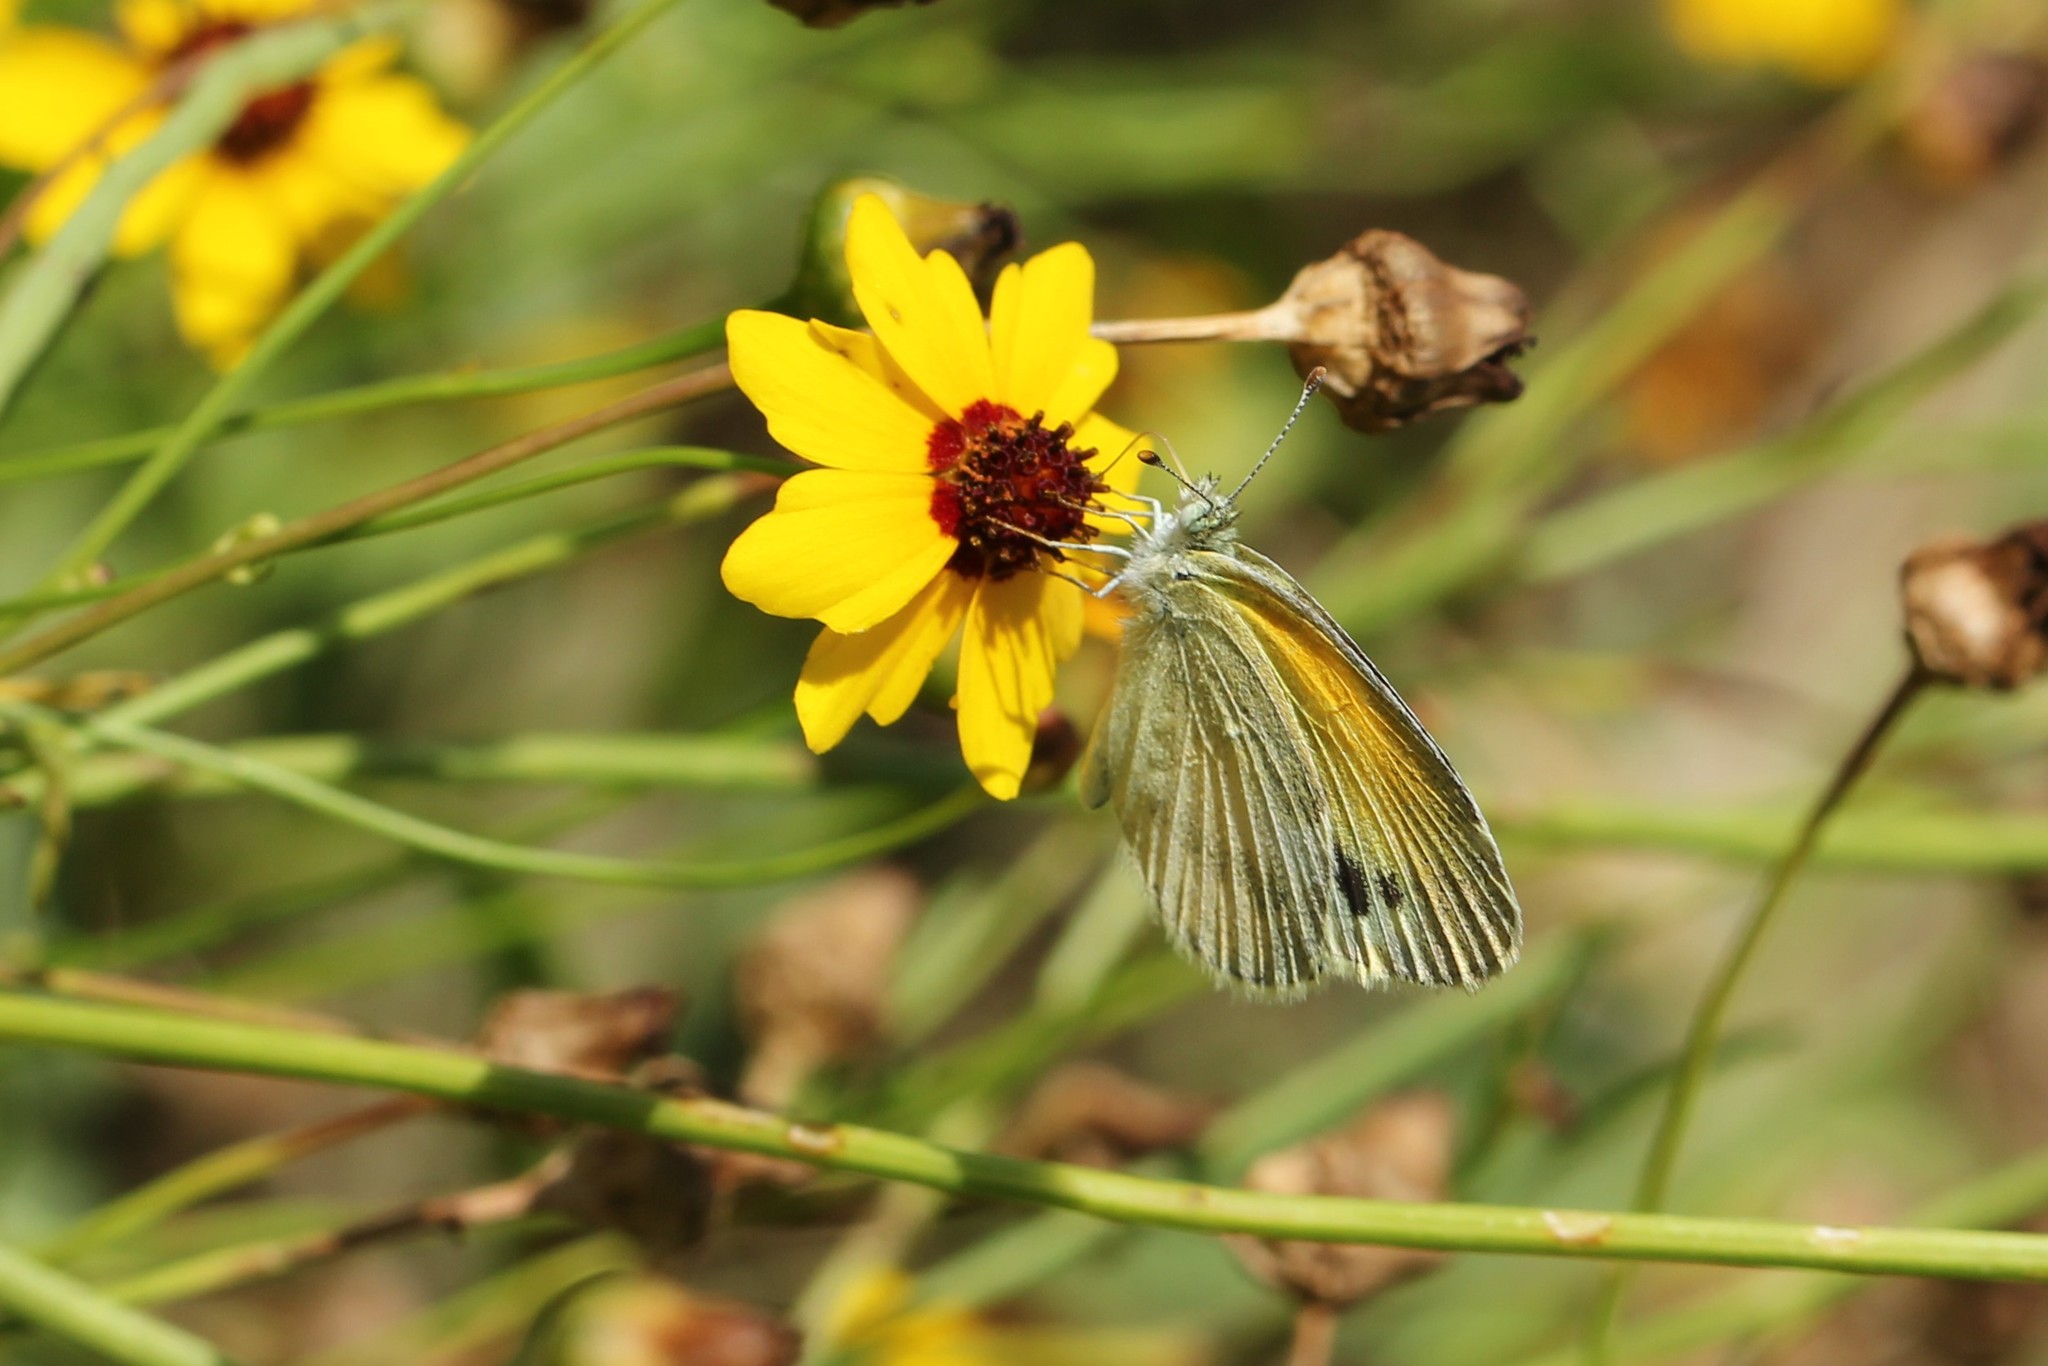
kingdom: Animalia
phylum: Arthropoda
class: Insecta
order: Lepidoptera
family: Pieridae
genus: Nathalis
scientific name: Nathalis iole
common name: Dainty sulphur
